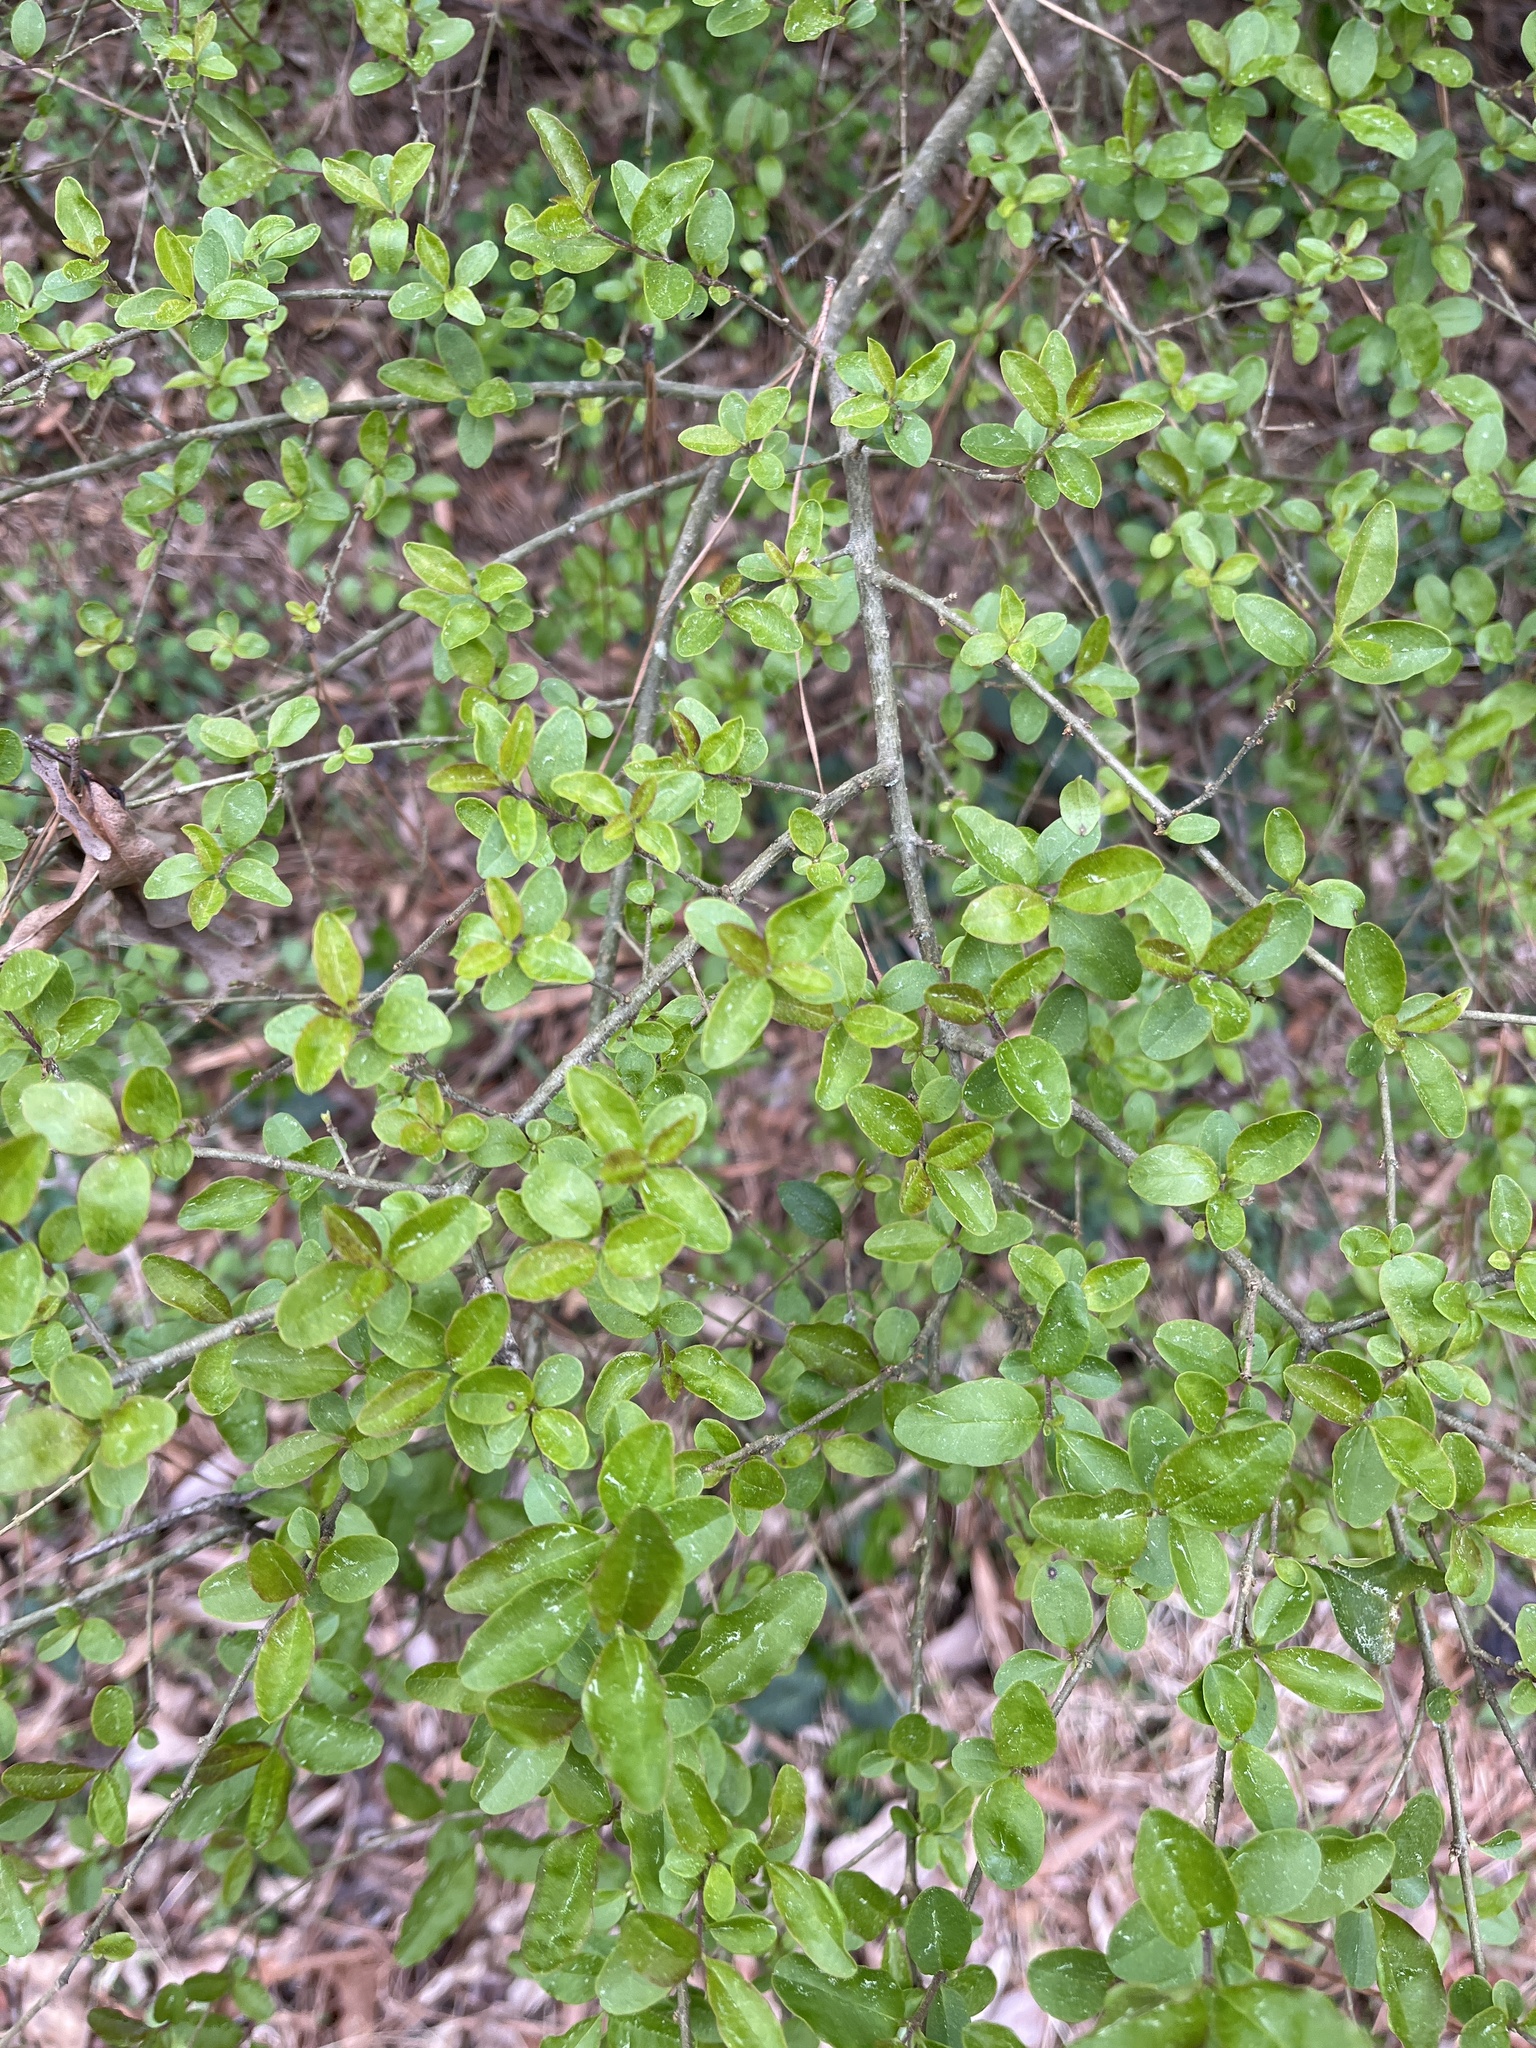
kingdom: Plantae
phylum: Tracheophyta
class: Magnoliopsida
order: Lamiales
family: Oleaceae
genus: Ligustrum
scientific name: Ligustrum sinense
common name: Chinese privet
